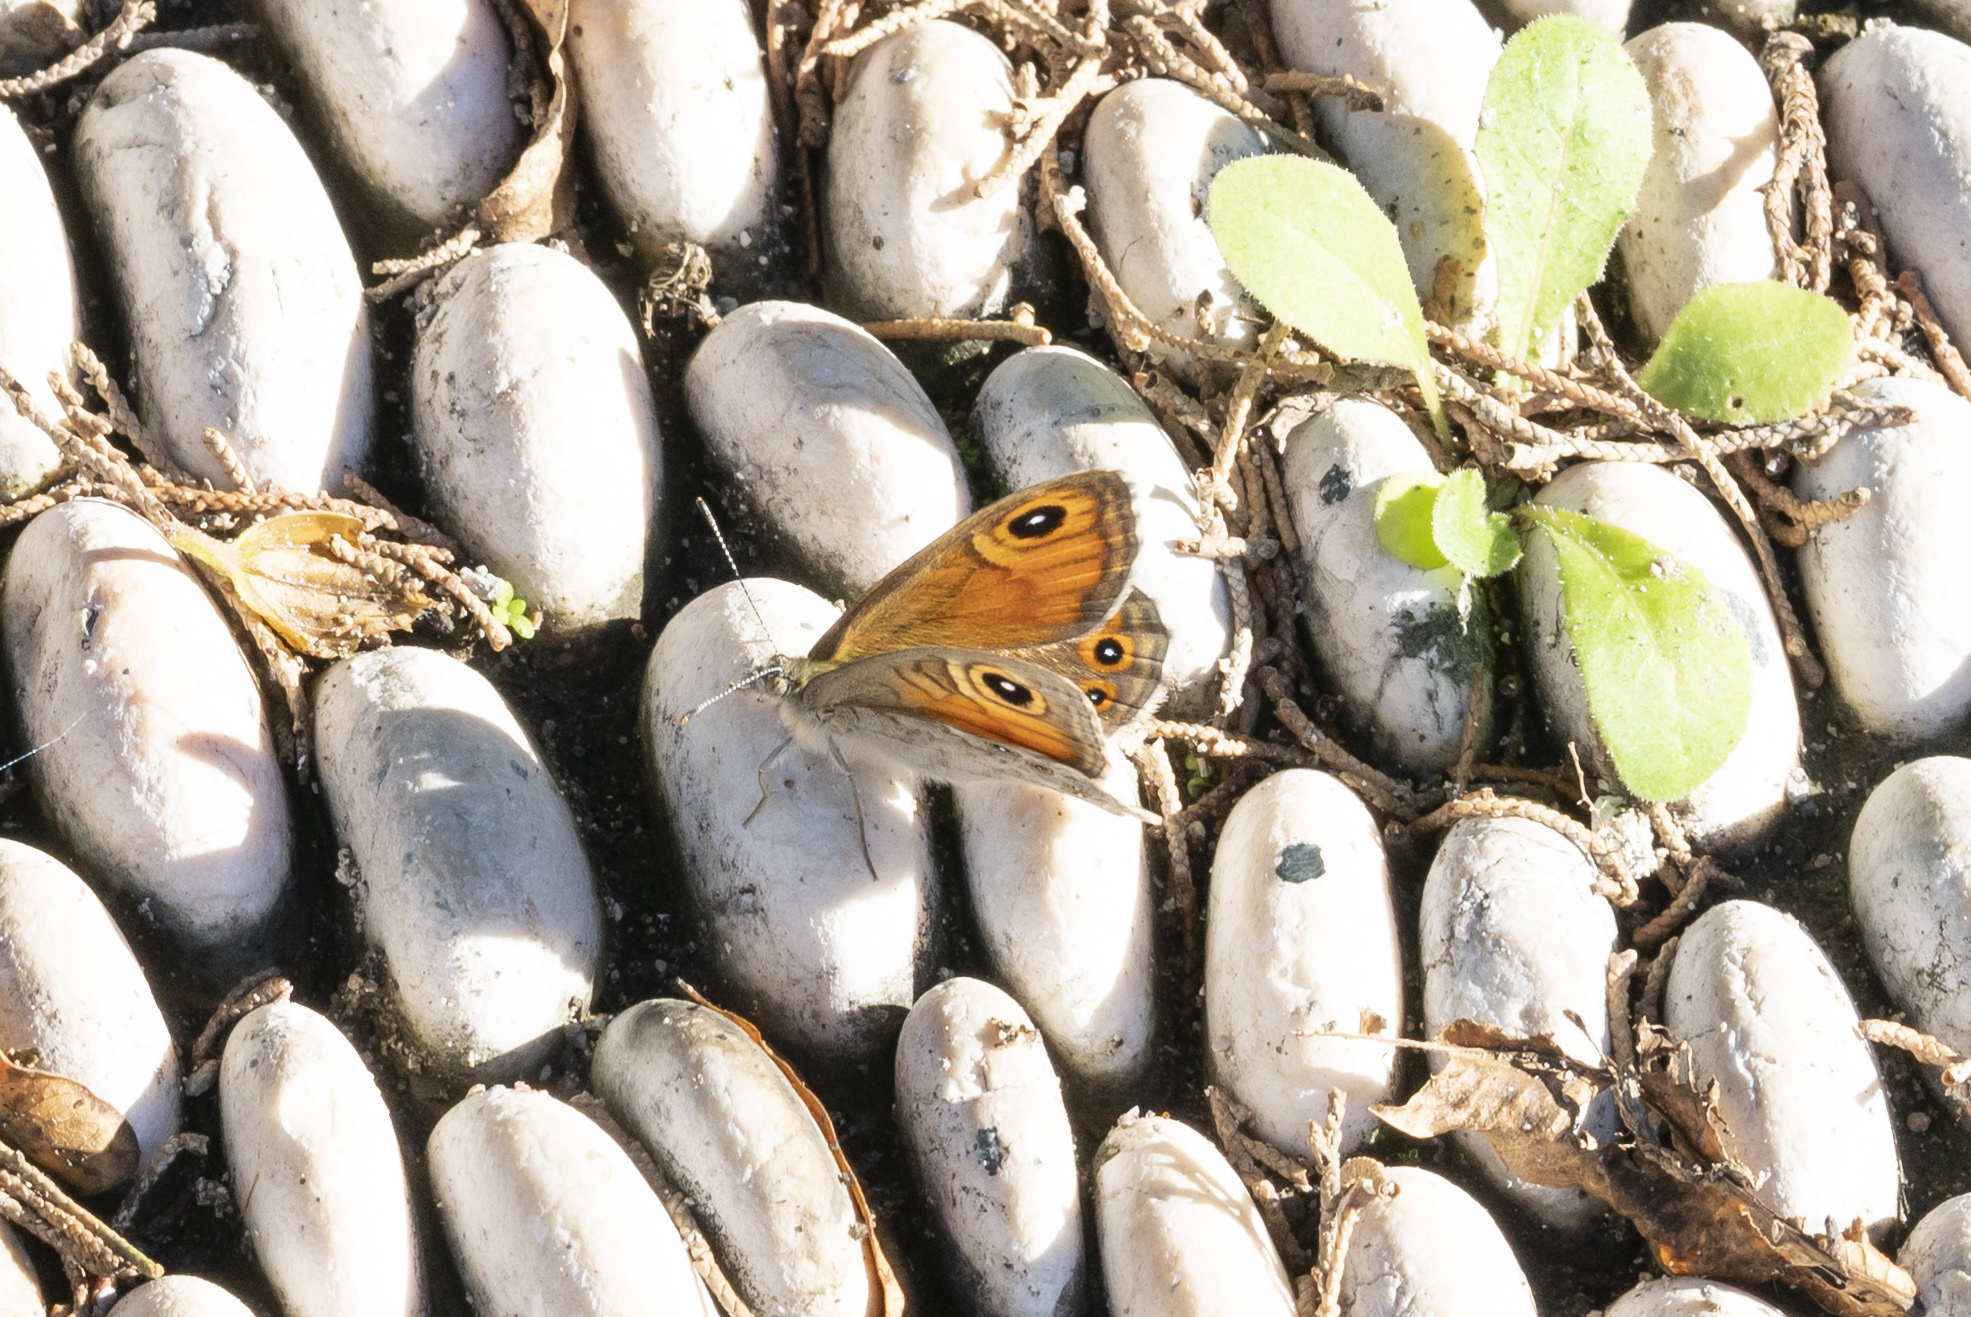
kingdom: Animalia
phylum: Arthropoda
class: Insecta
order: Lepidoptera
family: Nymphalidae
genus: Pararge
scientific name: Pararge Lasiommata maera
